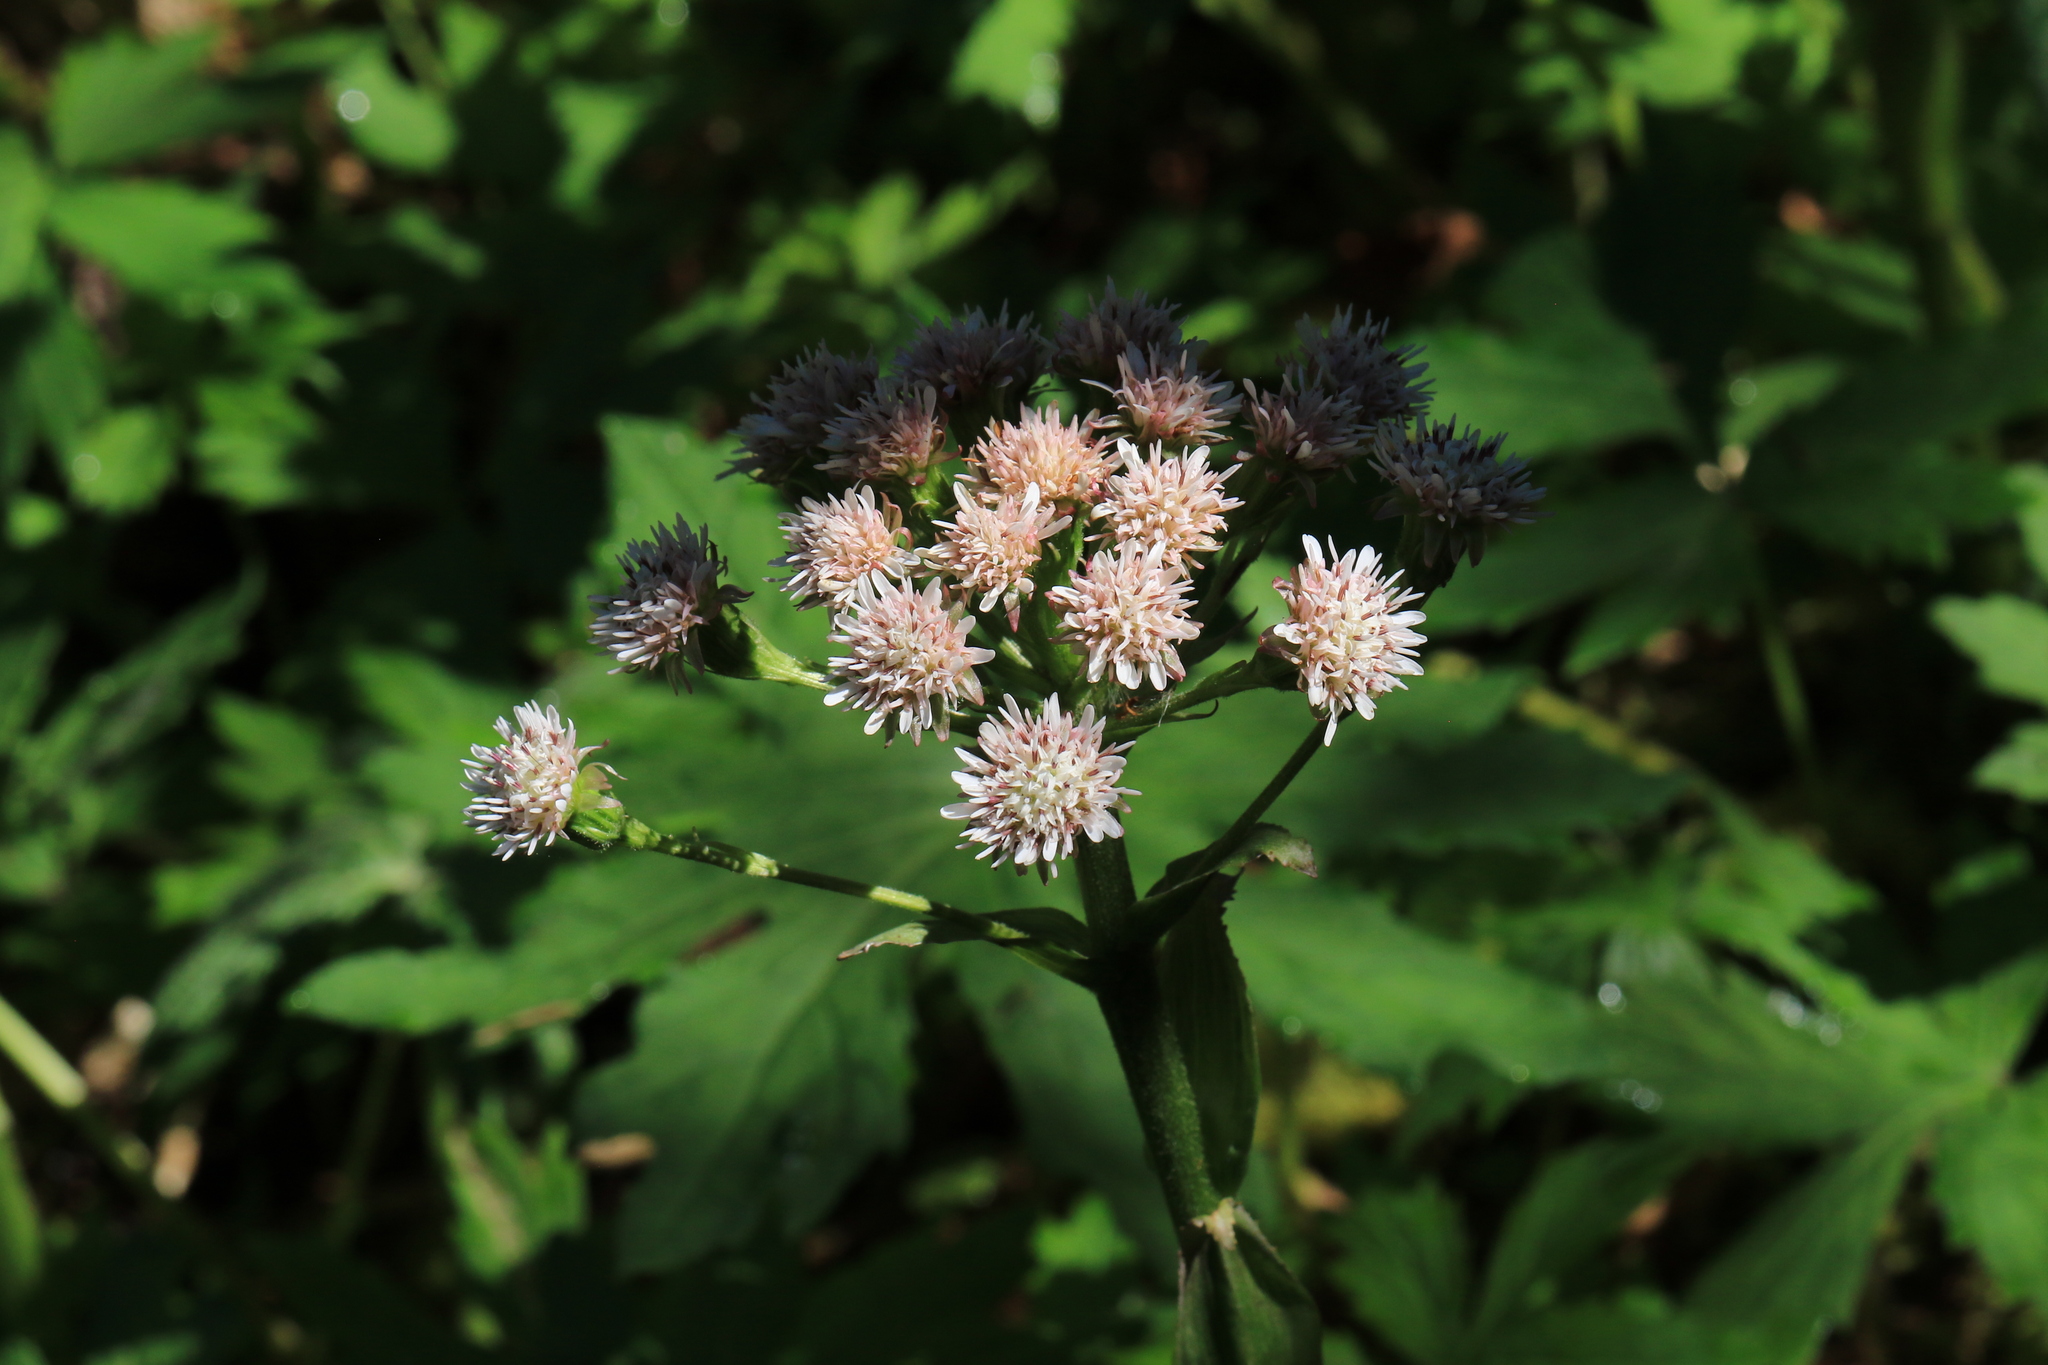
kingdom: Plantae
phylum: Tracheophyta
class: Magnoliopsida
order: Asterales
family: Asteraceae
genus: Petasites
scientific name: Petasites frigidus
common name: Arctic butterbur
